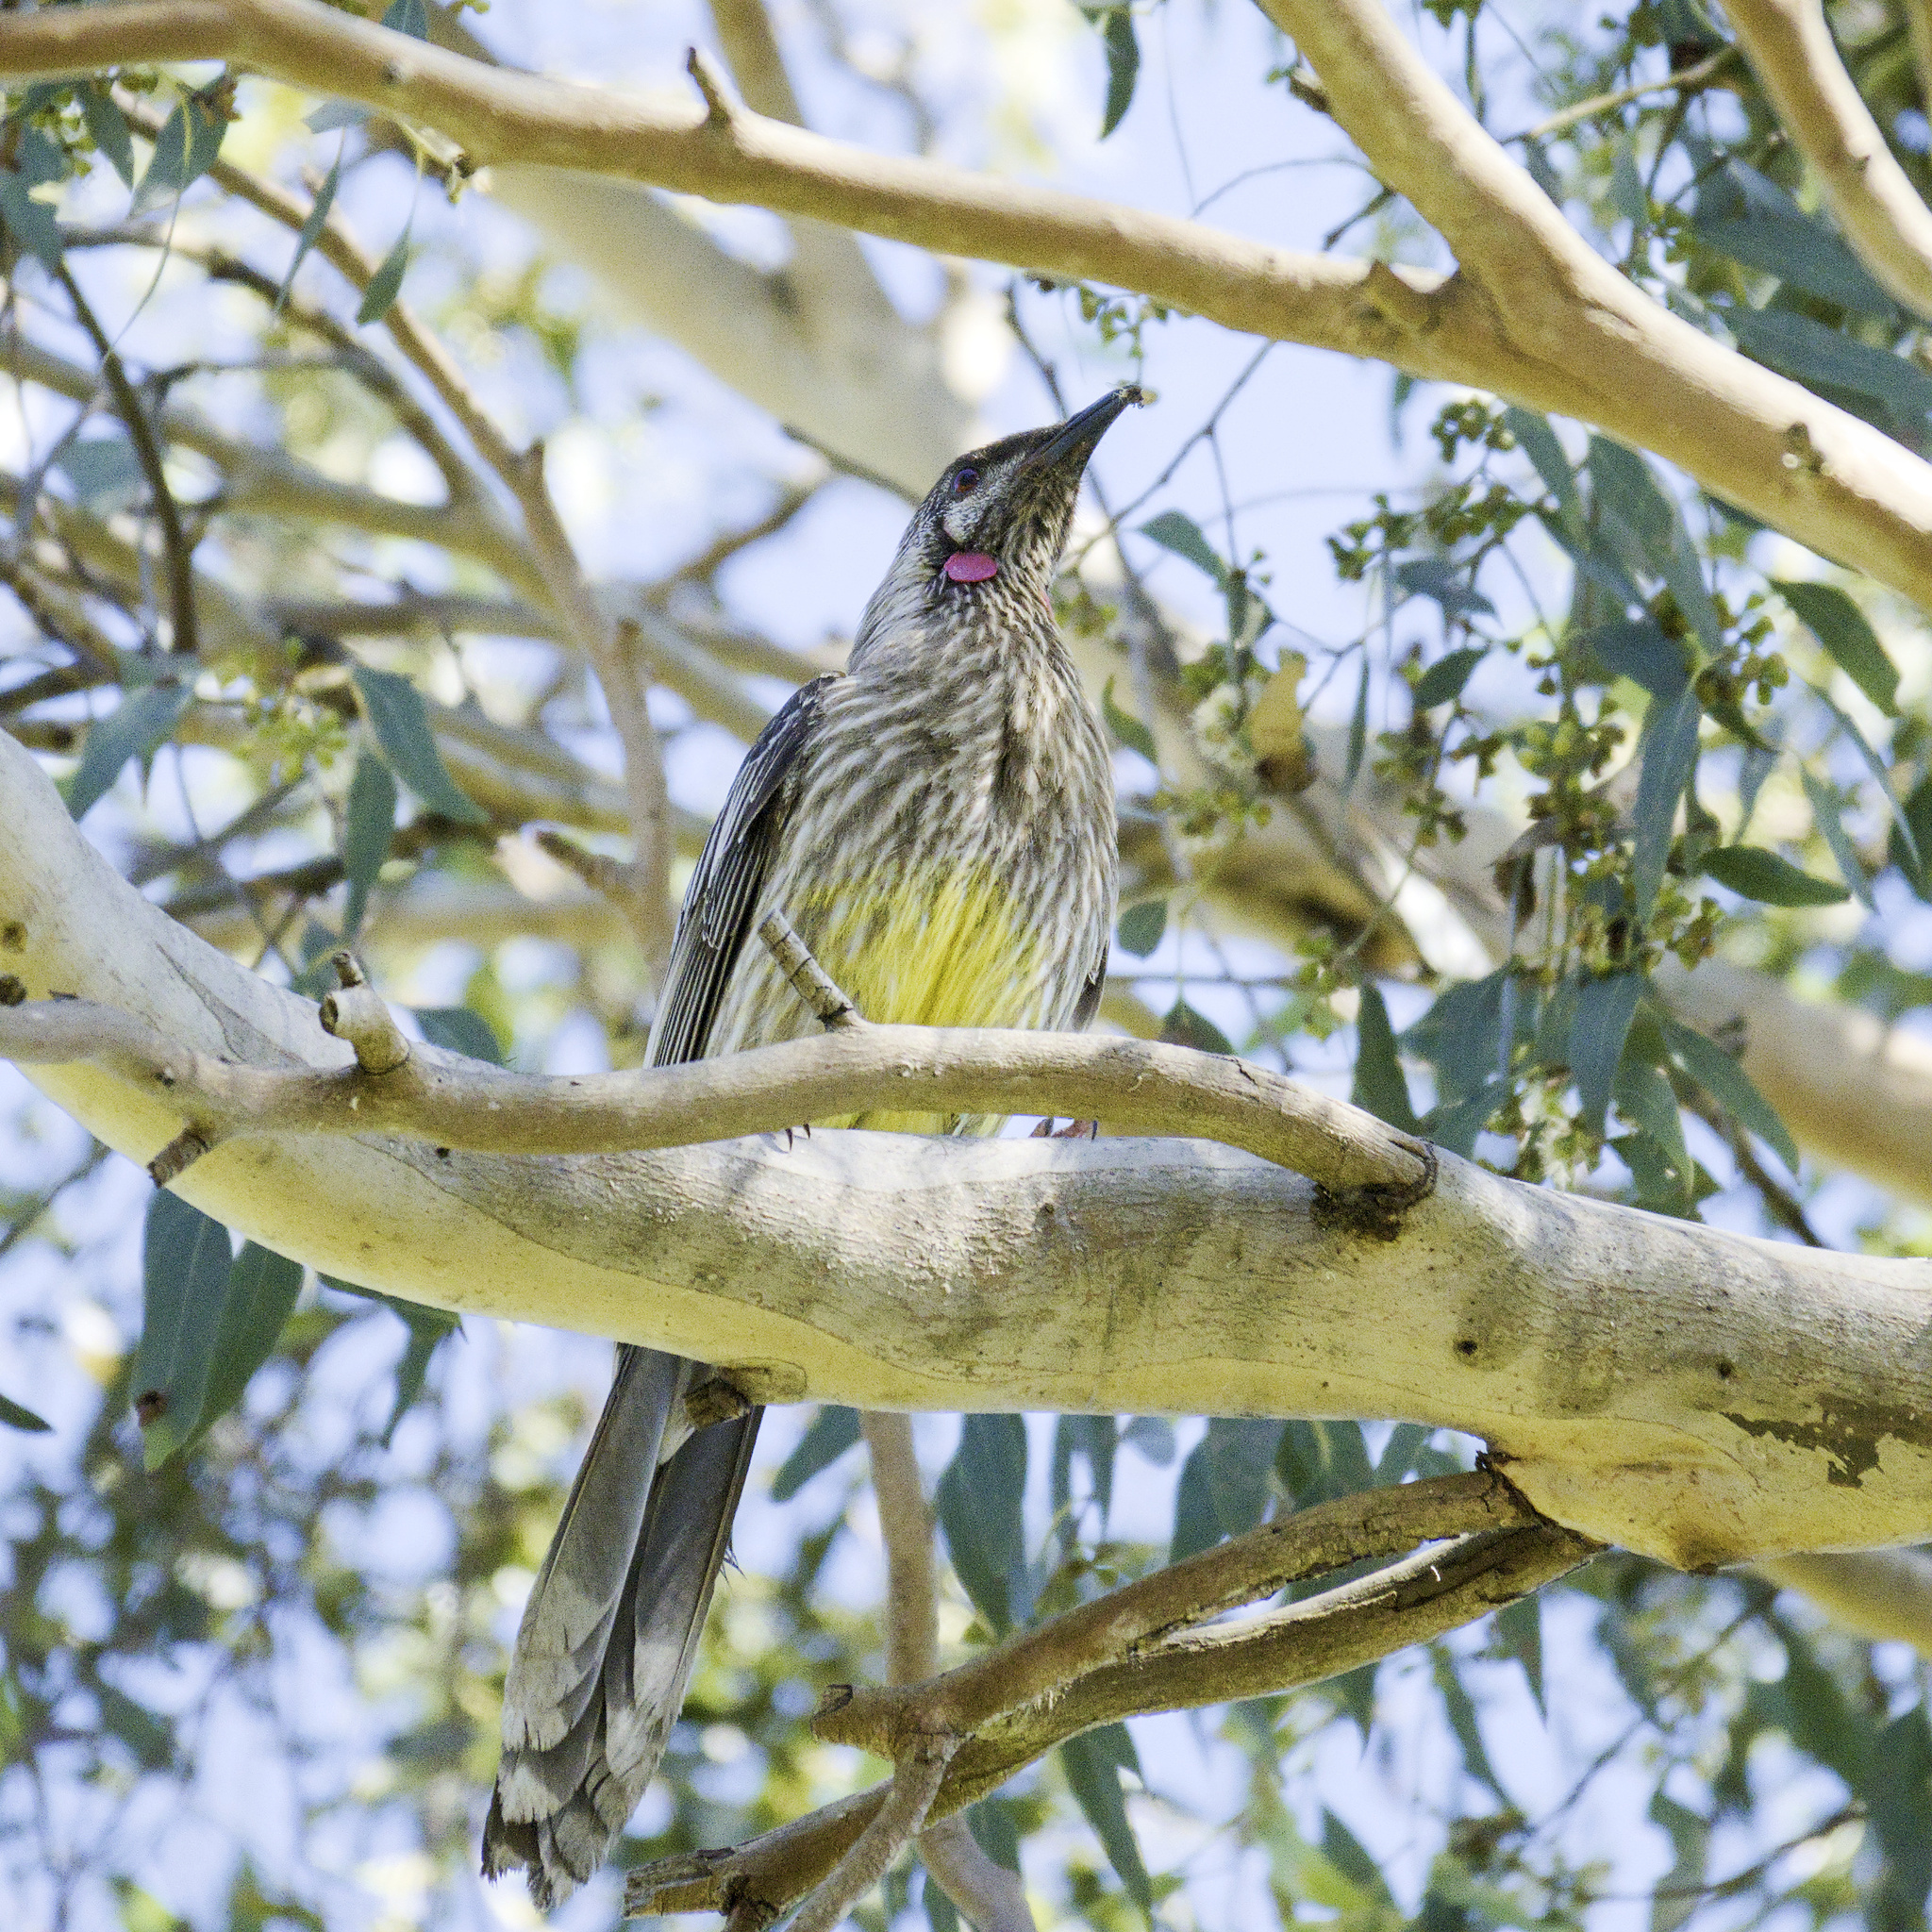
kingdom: Animalia
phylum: Chordata
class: Aves
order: Passeriformes
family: Meliphagidae
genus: Anthochaera
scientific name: Anthochaera carunculata
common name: Red wattlebird
